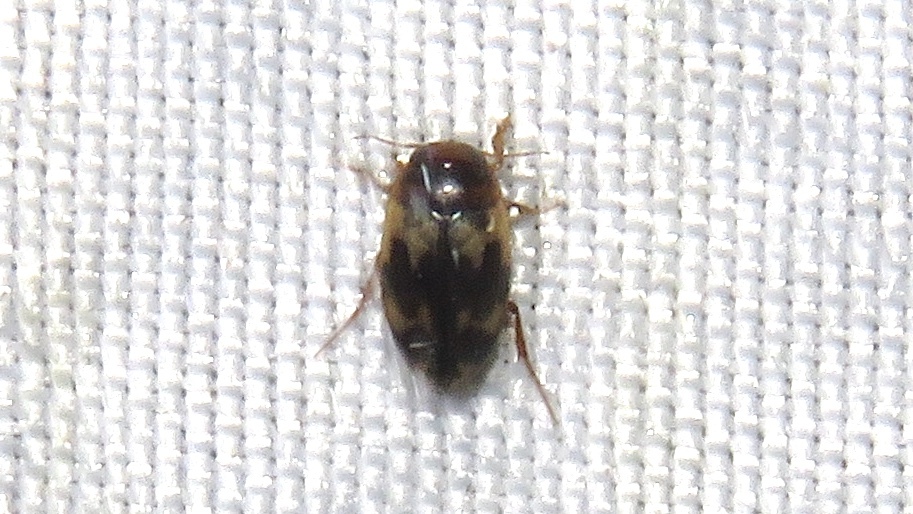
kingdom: Animalia
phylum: Arthropoda
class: Insecta
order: Coleoptera
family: Dytiscidae
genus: Heterosternuta
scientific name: Heterosternuta wickhami
